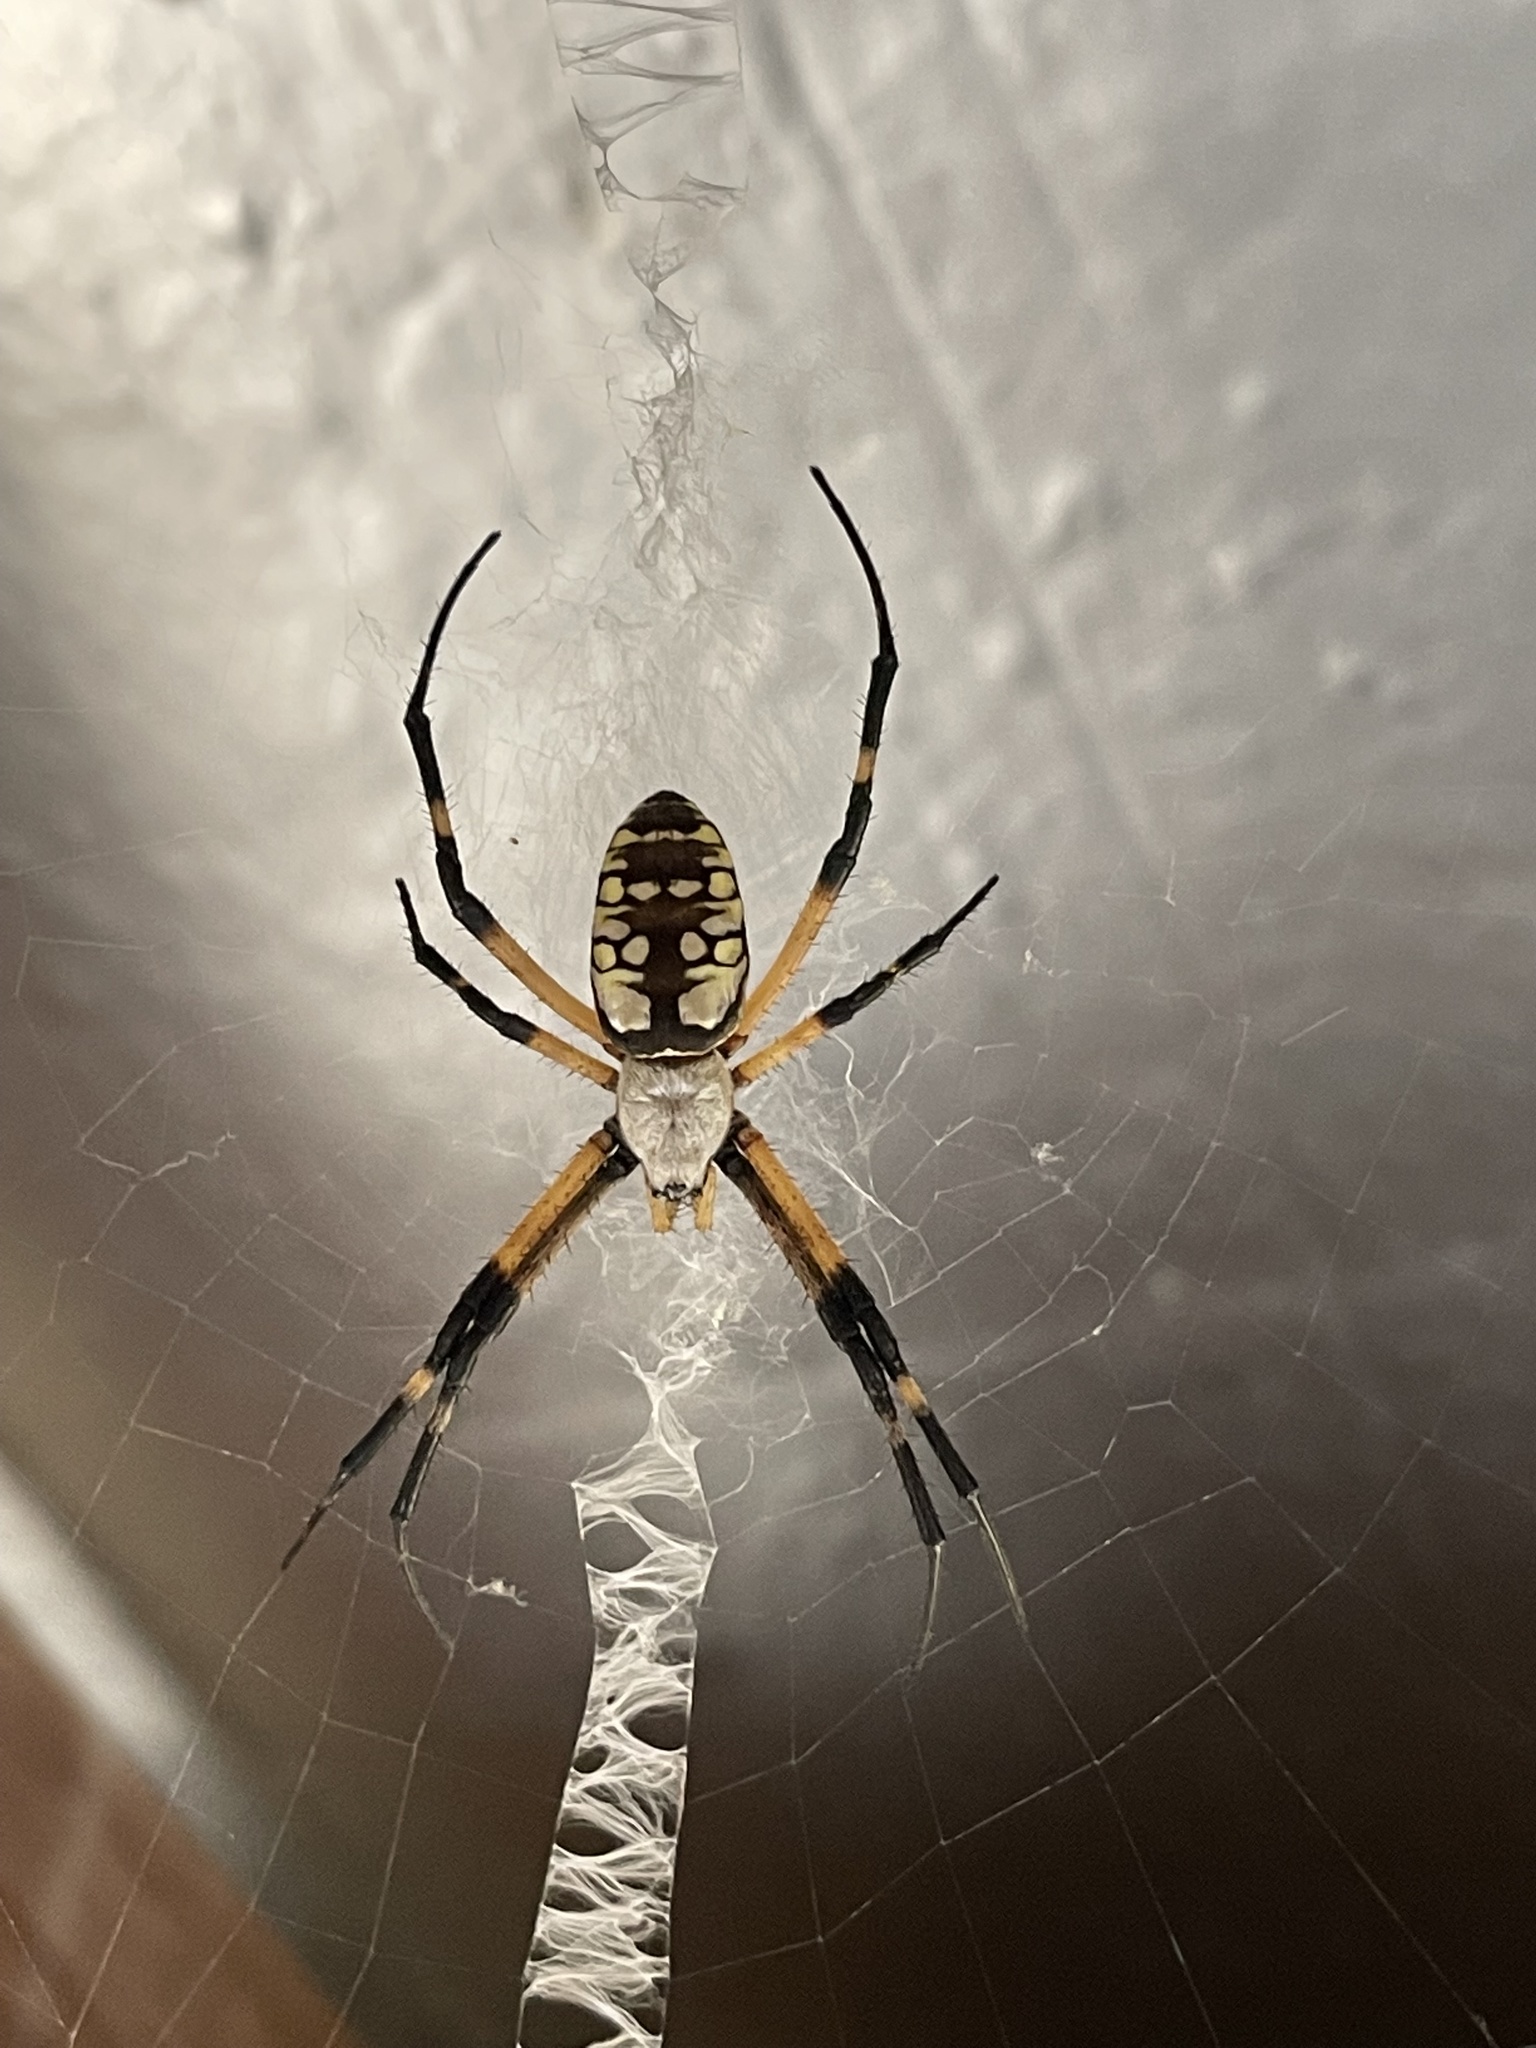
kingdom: Animalia
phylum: Arthropoda
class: Arachnida
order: Araneae
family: Araneidae
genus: Argiope
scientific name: Argiope aurantia
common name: Orb weavers
